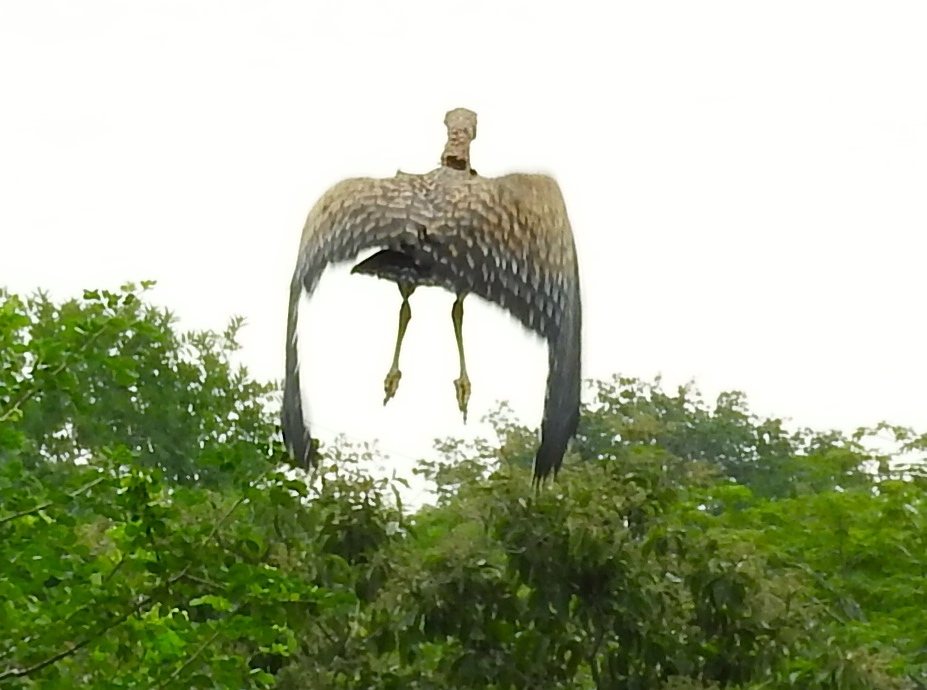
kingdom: Animalia
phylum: Chordata
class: Aves
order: Pelecaniformes
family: Ardeidae
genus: Tigrisoma
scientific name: Tigrisoma mexicanum
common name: Bare-throated tiger-heron
